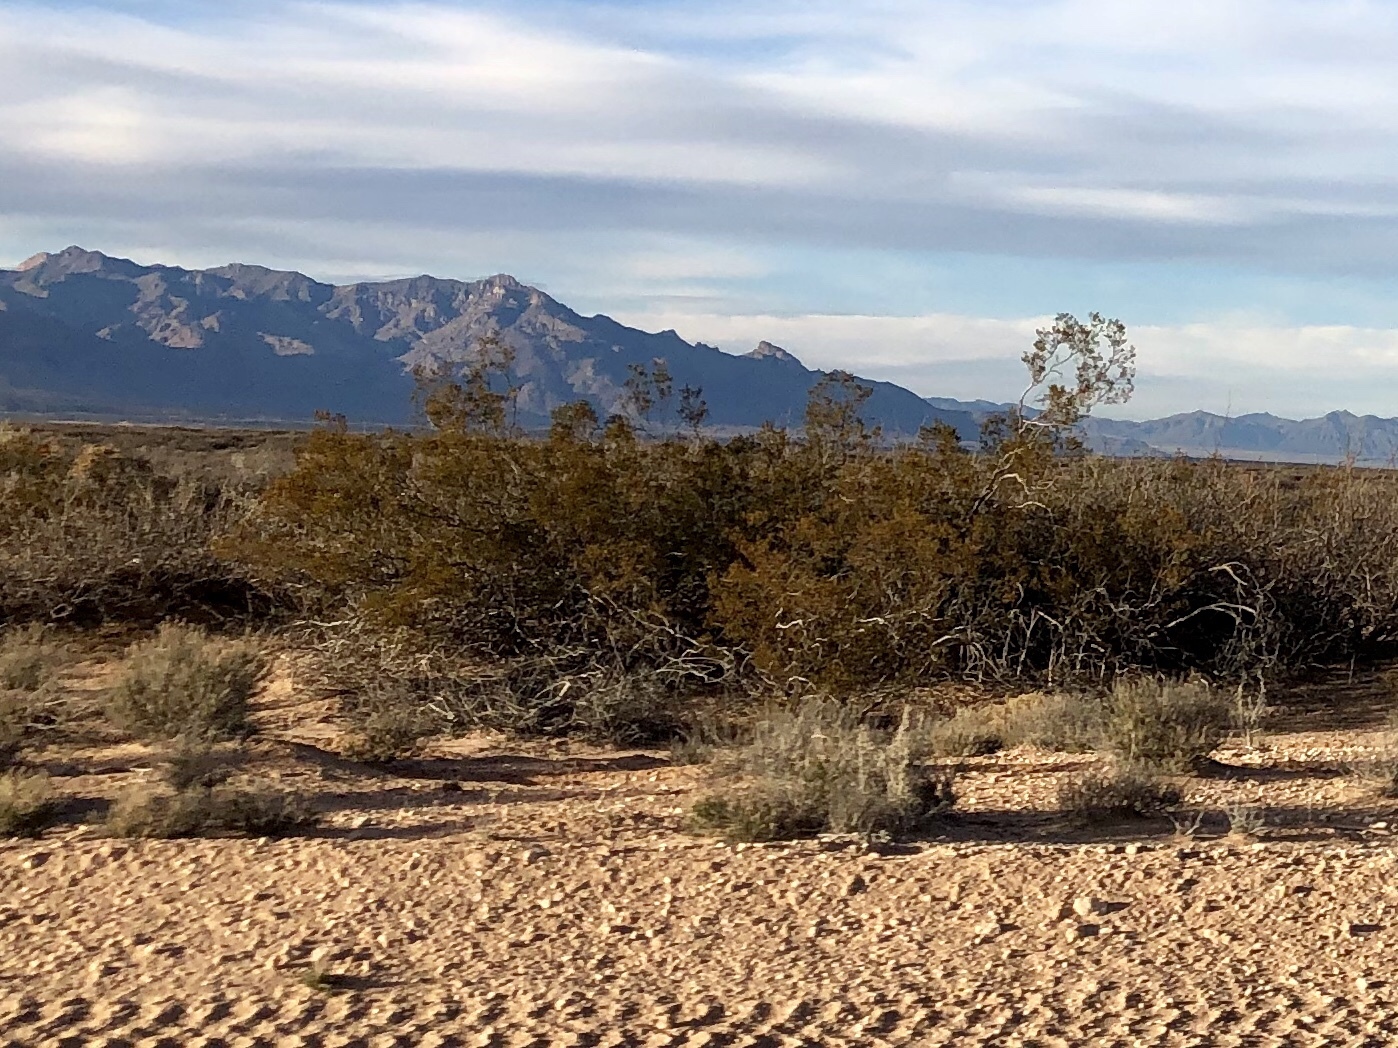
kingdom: Plantae
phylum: Tracheophyta
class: Magnoliopsida
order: Zygophyllales
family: Zygophyllaceae
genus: Larrea
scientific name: Larrea tridentata
